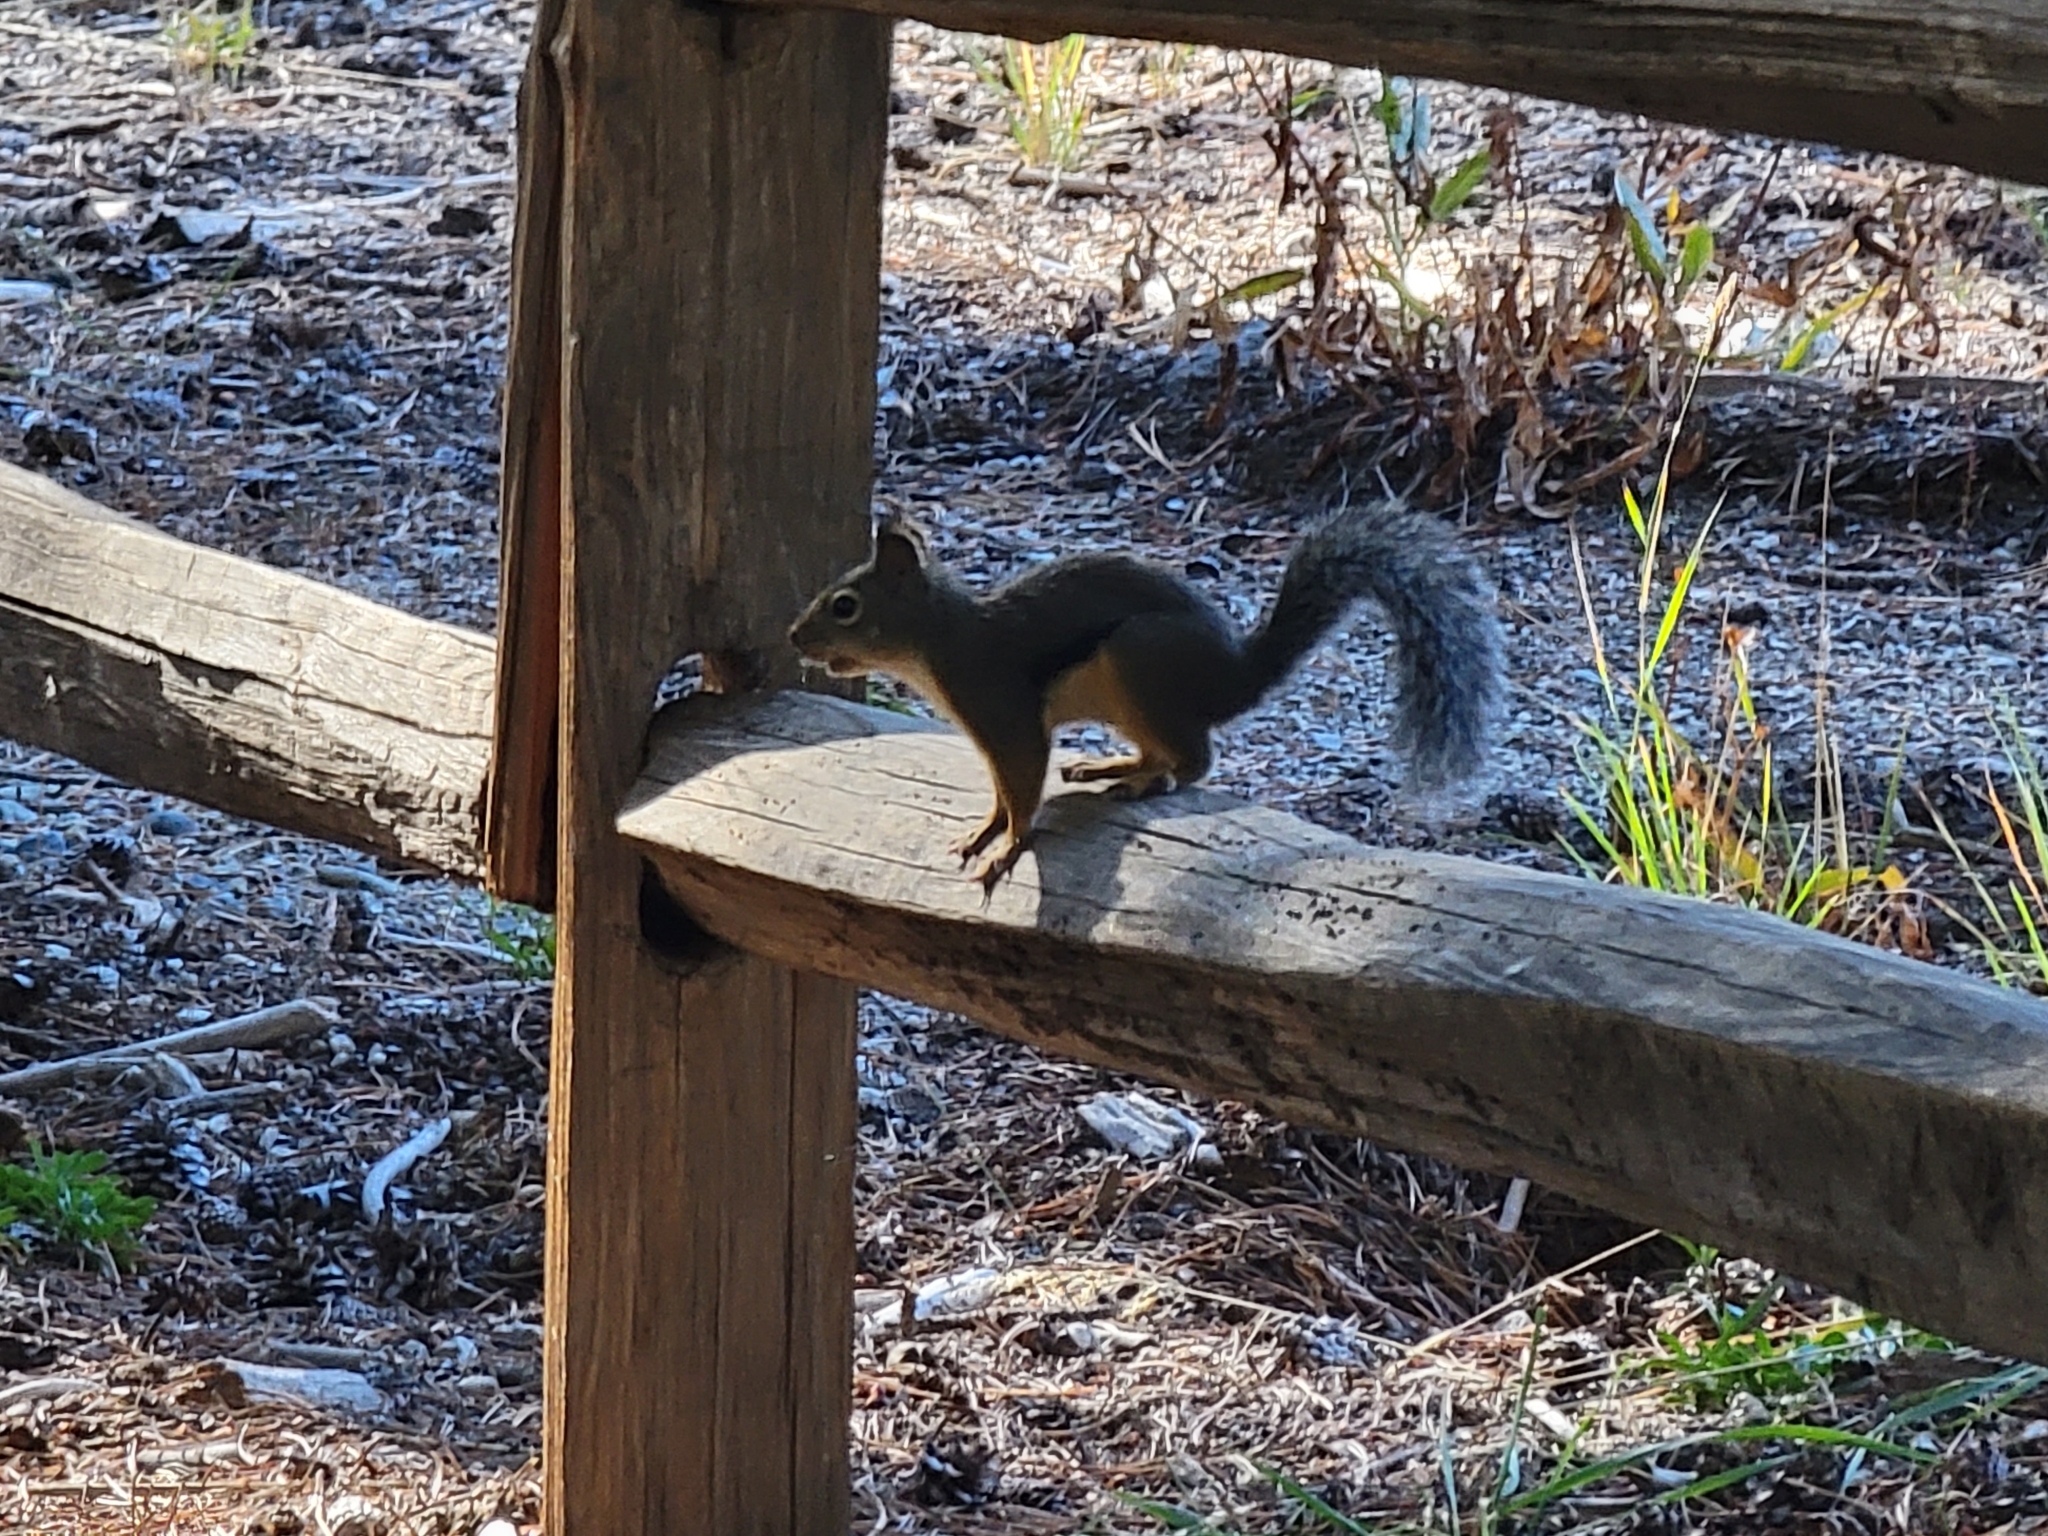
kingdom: Animalia
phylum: Chordata
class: Mammalia
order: Rodentia
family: Sciuridae
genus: Tamiasciurus
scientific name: Tamiasciurus douglasii
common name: Douglas's squirrel
